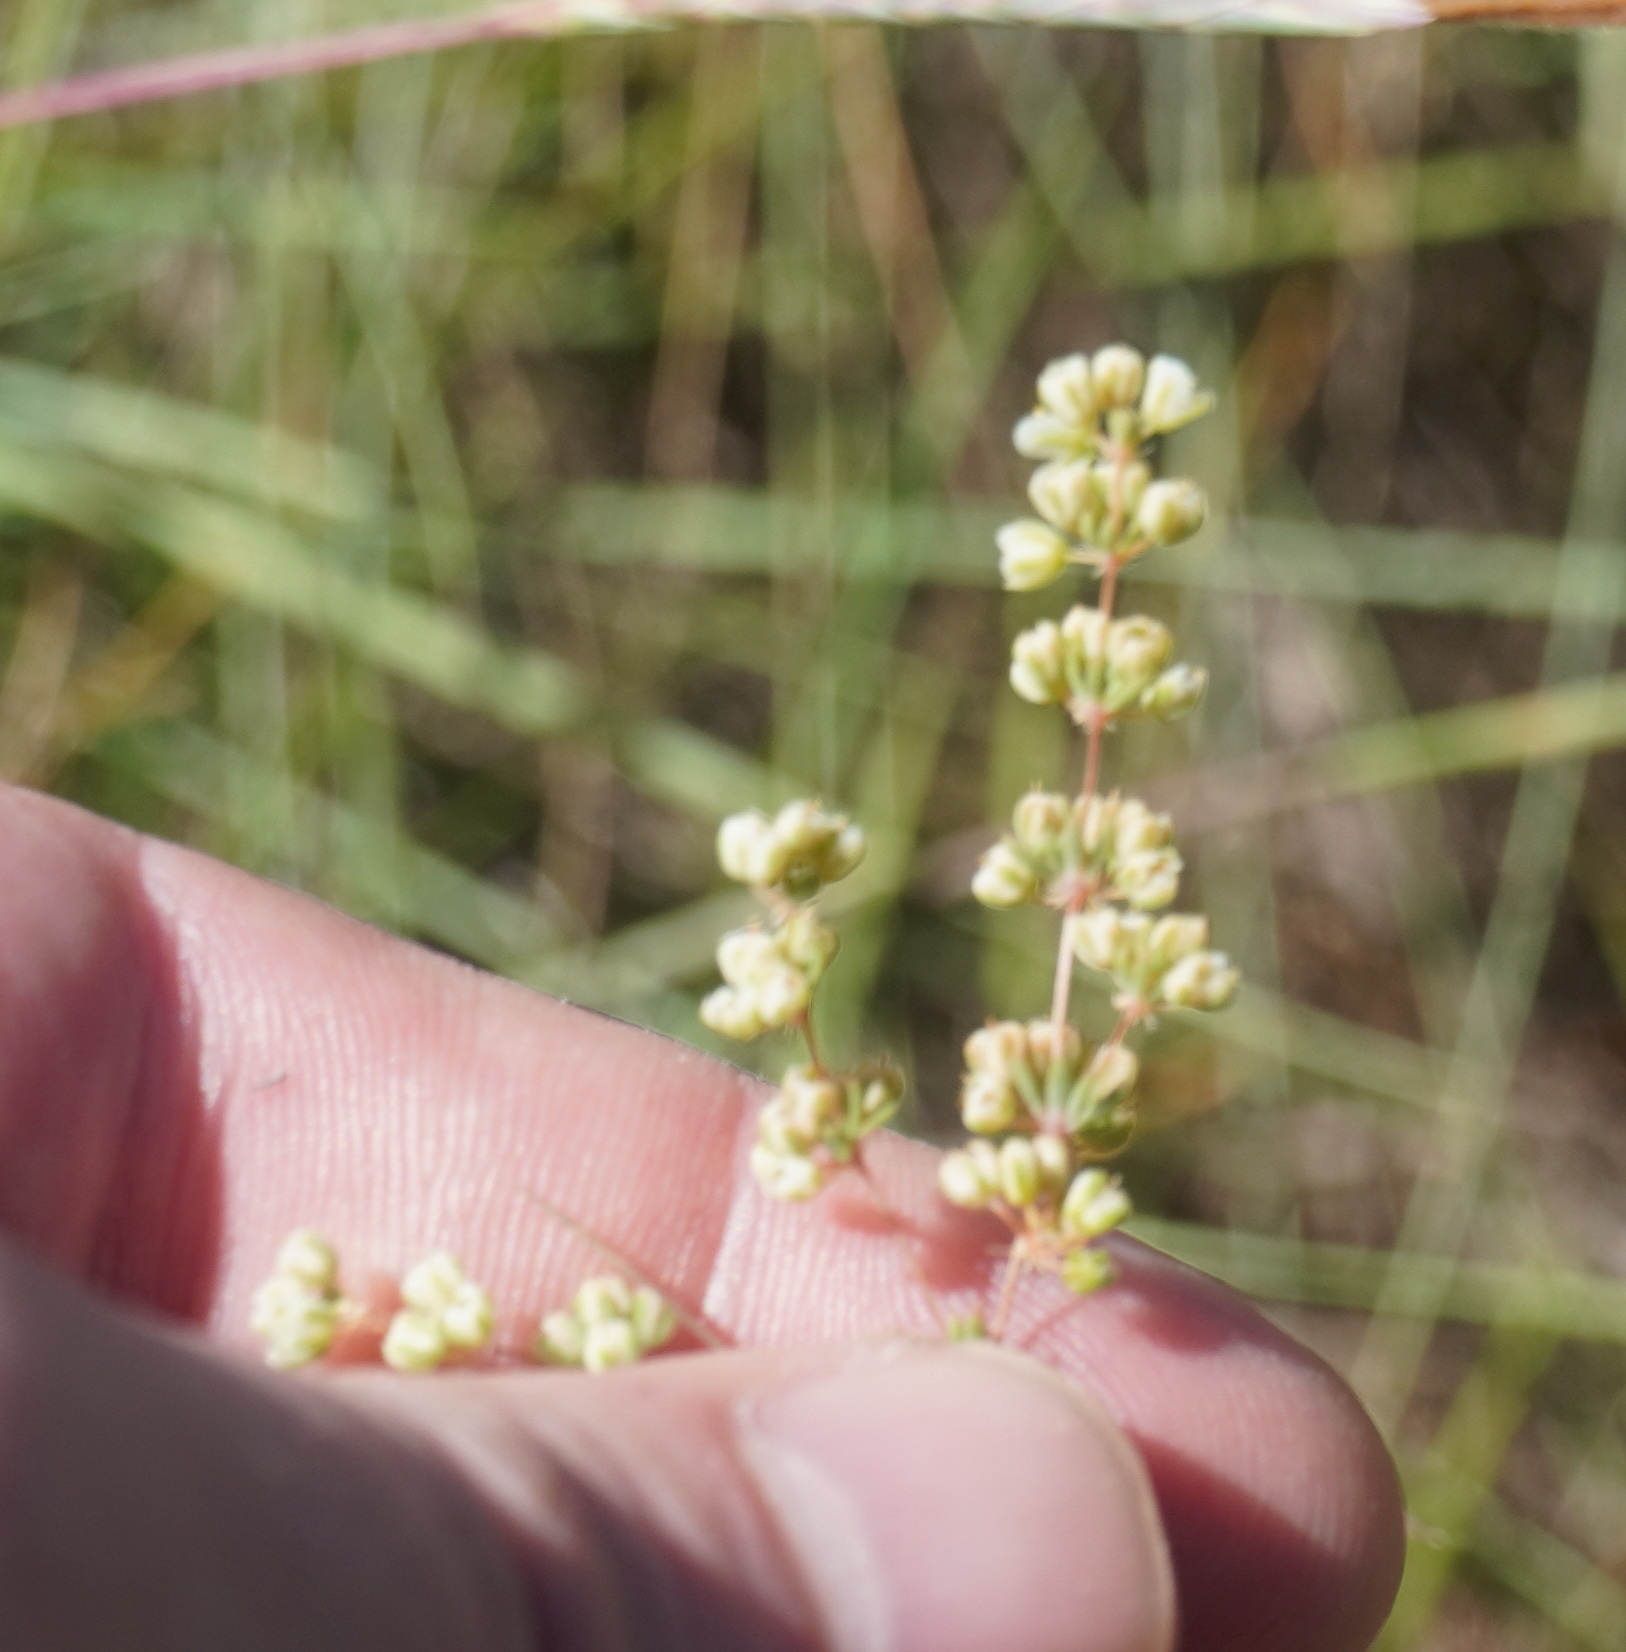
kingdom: Plantae
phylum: Tracheophyta
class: Magnoliopsida
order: Caryophyllales
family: Molluginaceae
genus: Psammotropha
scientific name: Psammotropha myriantha
